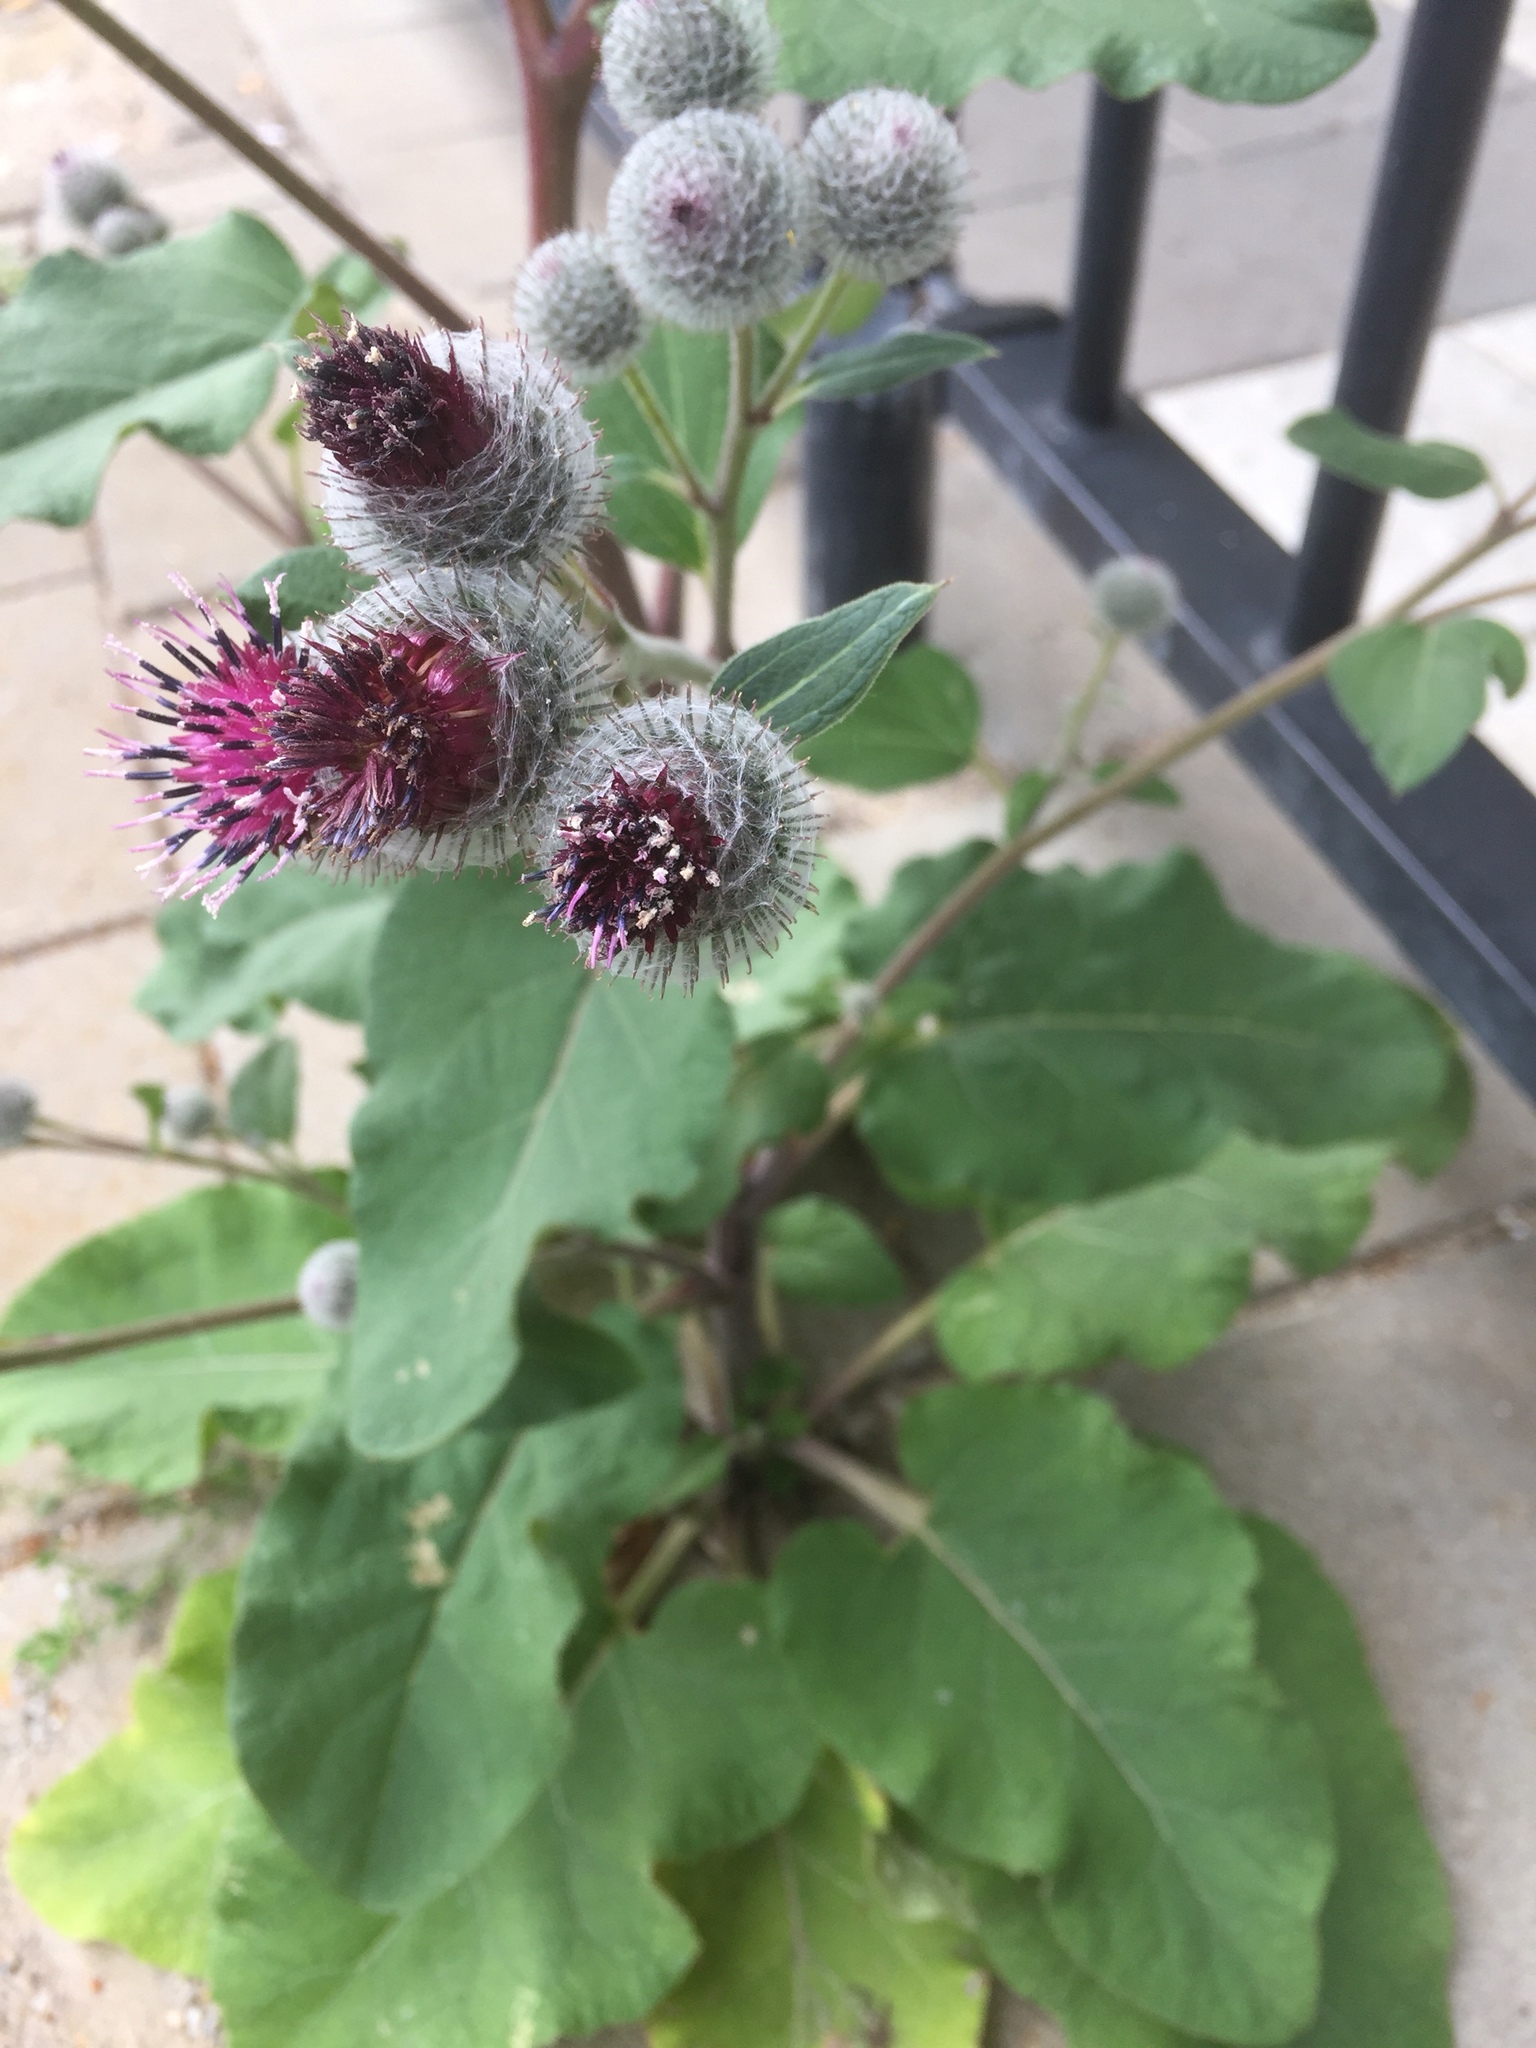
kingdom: Plantae
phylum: Tracheophyta
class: Magnoliopsida
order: Asterales
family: Asteraceae
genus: Arctium
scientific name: Arctium tomentosum
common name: Woolly burdock
